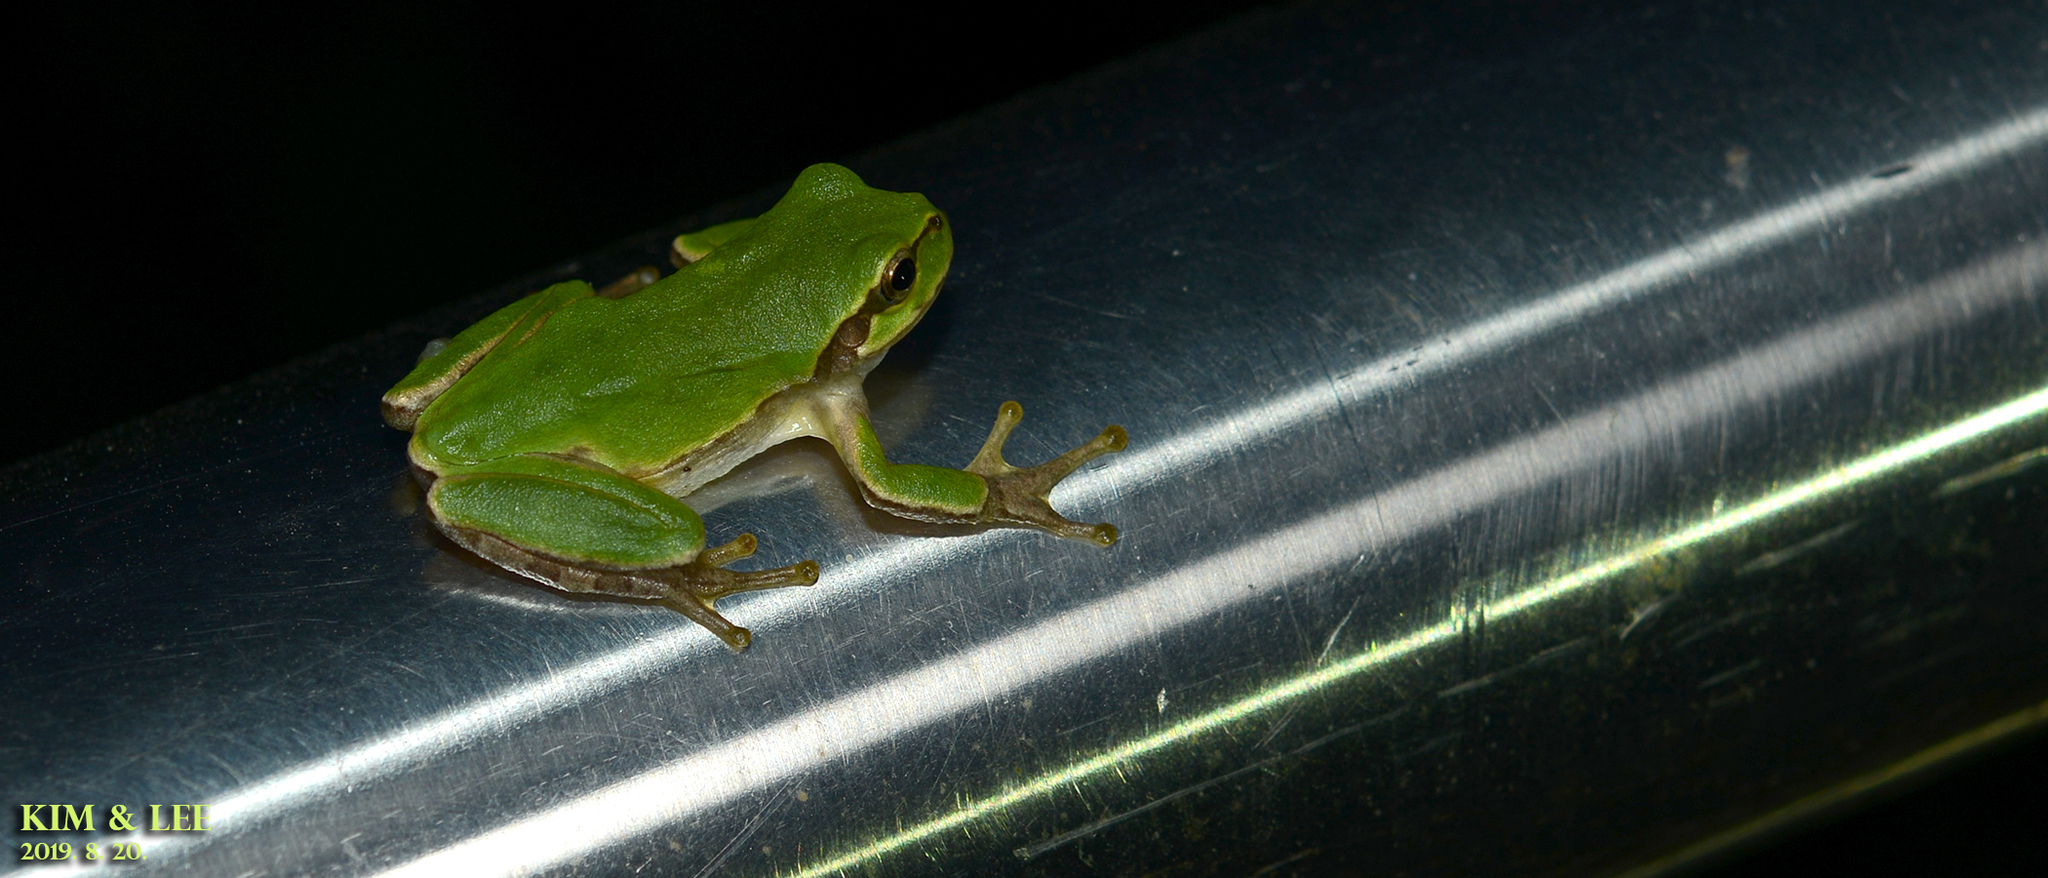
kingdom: Animalia
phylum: Chordata
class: Amphibia
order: Anura
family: Hylidae
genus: Dryophytes
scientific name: Dryophytes japonicus
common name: Japanese treefrog
